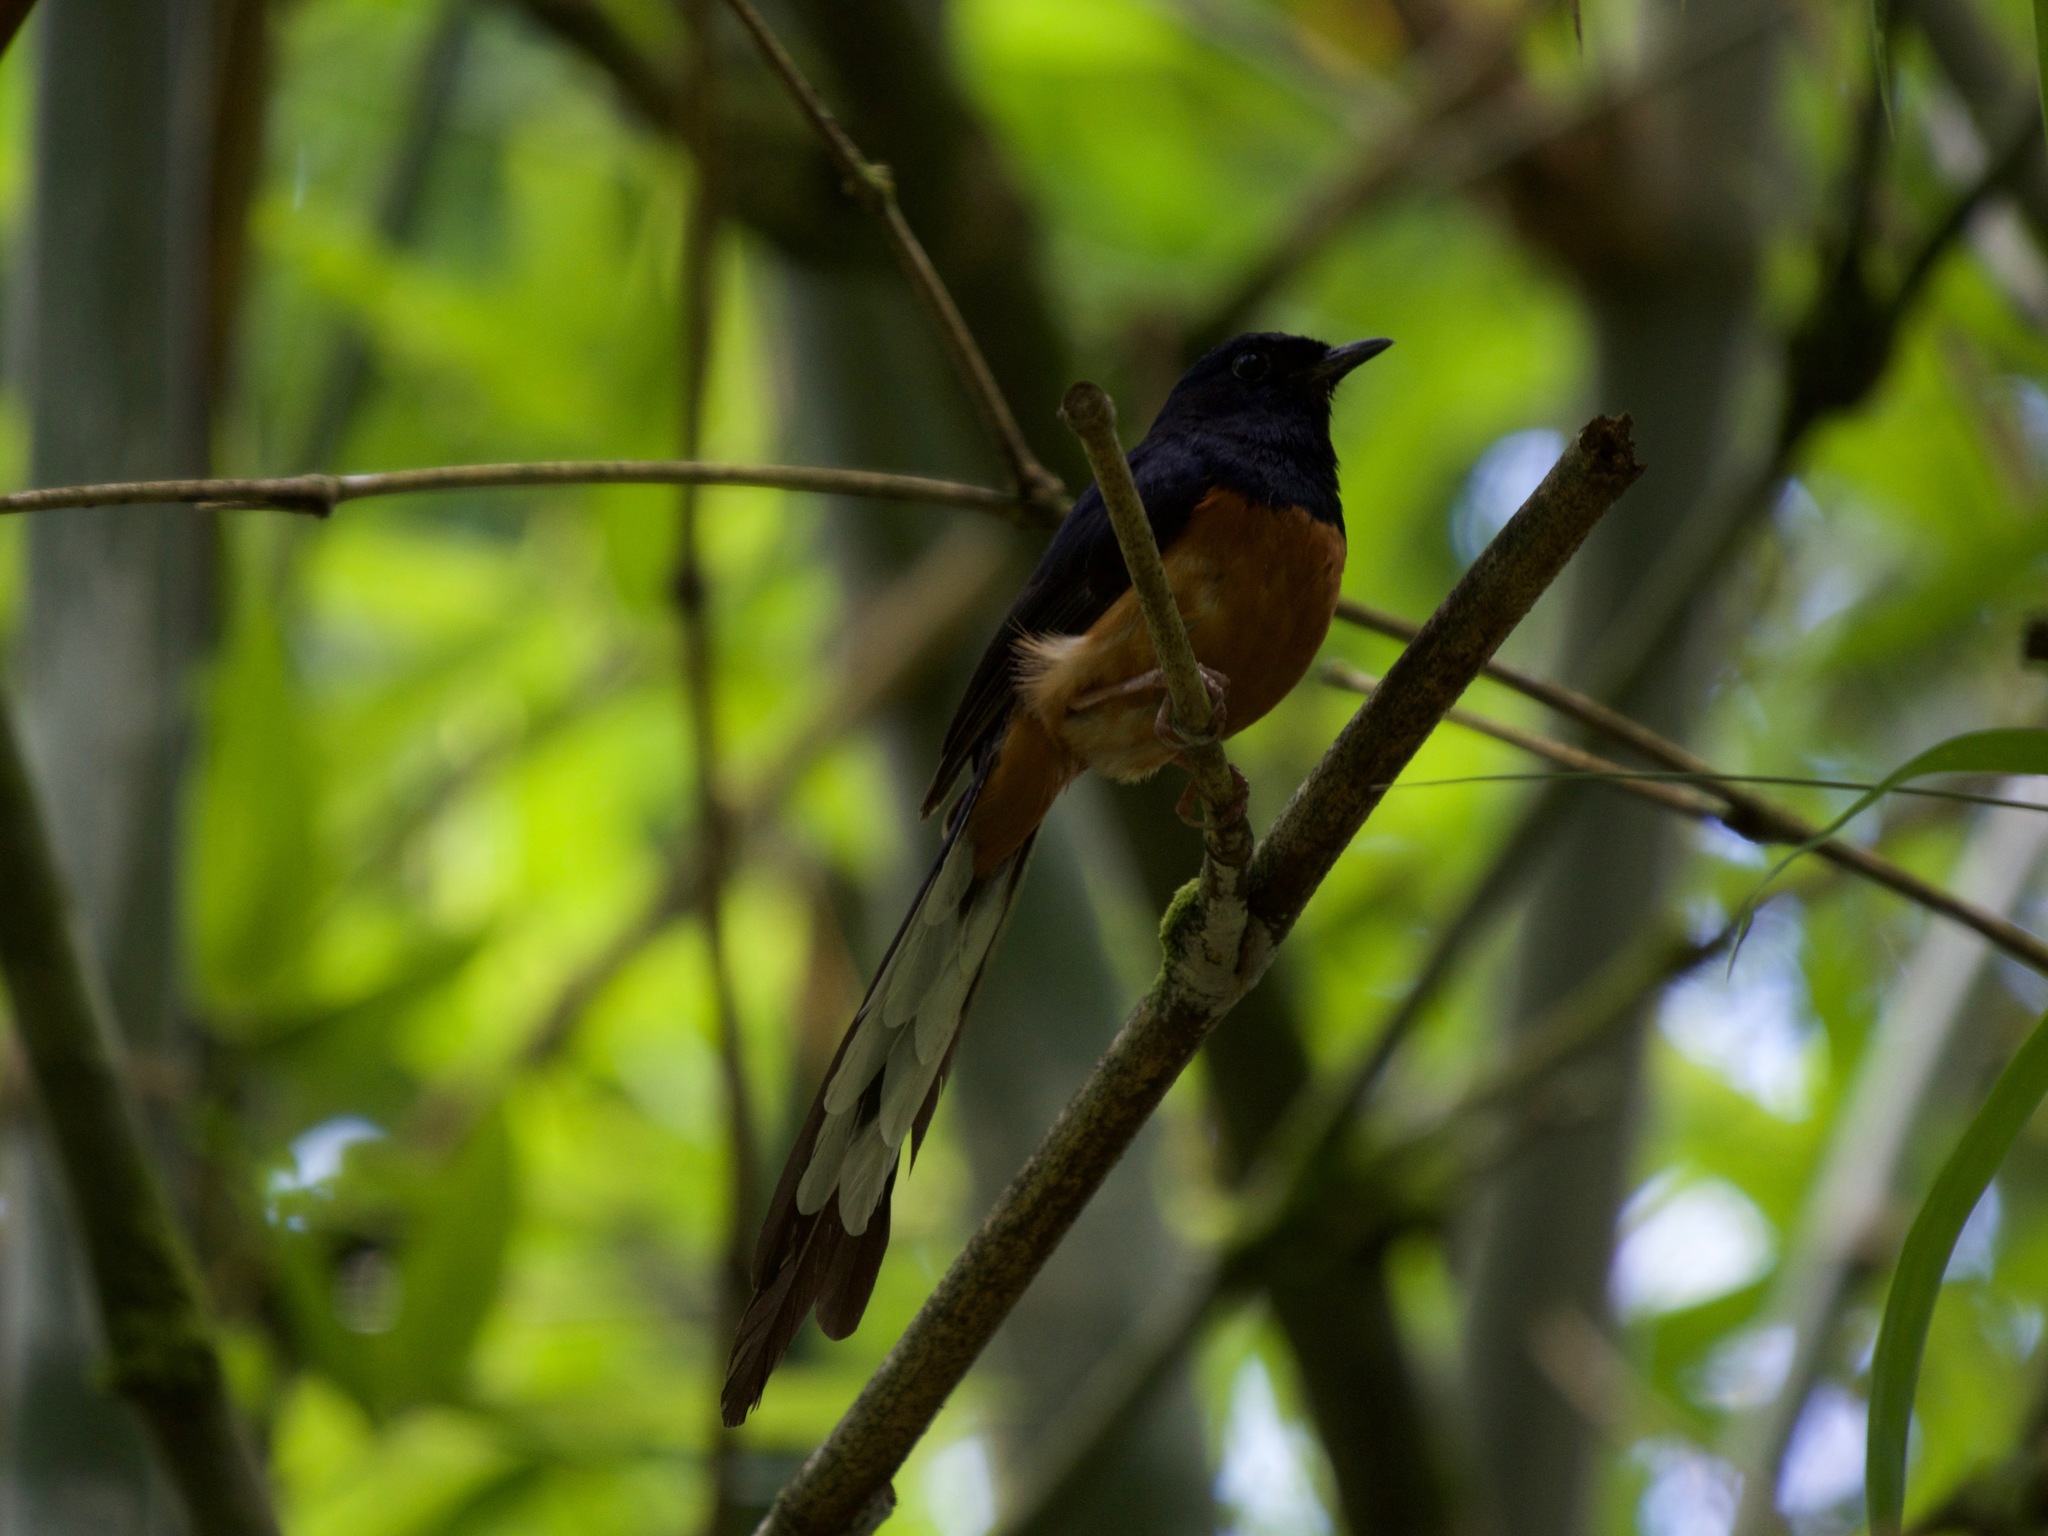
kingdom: Animalia
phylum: Chordata
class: Aves
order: Passeriformes
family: Muscicapidae
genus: Copsychus
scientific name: Copsychus malabaricus
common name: White-rumped shama
